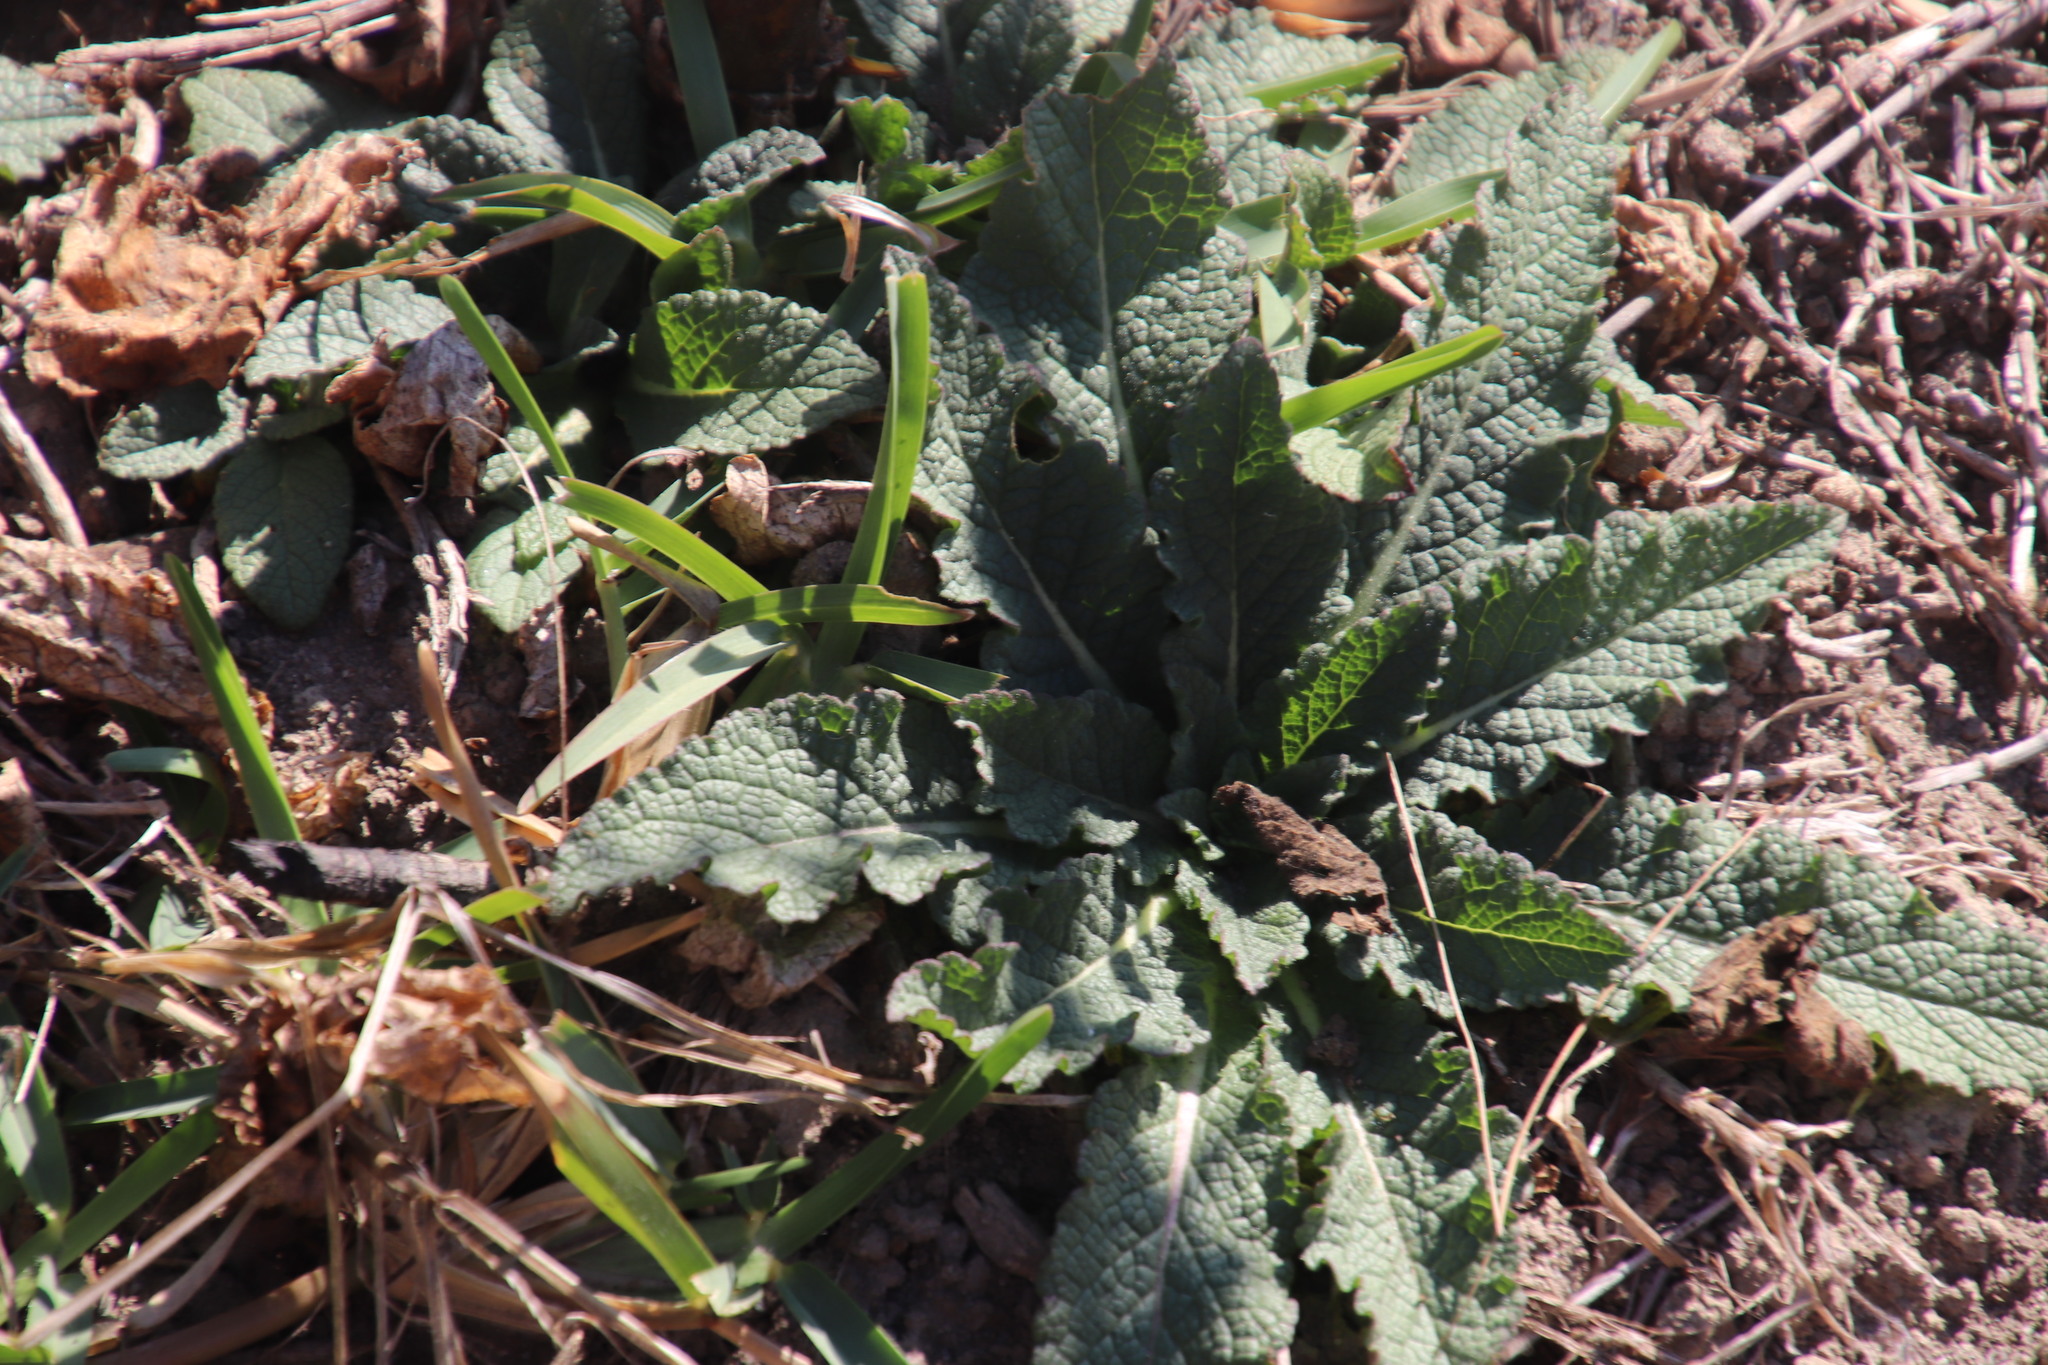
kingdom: Plantae
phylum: Tracheophyta
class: Magnoliopsida
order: Lamiales
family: Scrophulariaceae
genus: Verbascum
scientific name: Verbascum virgatum
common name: Twiggy mullein
